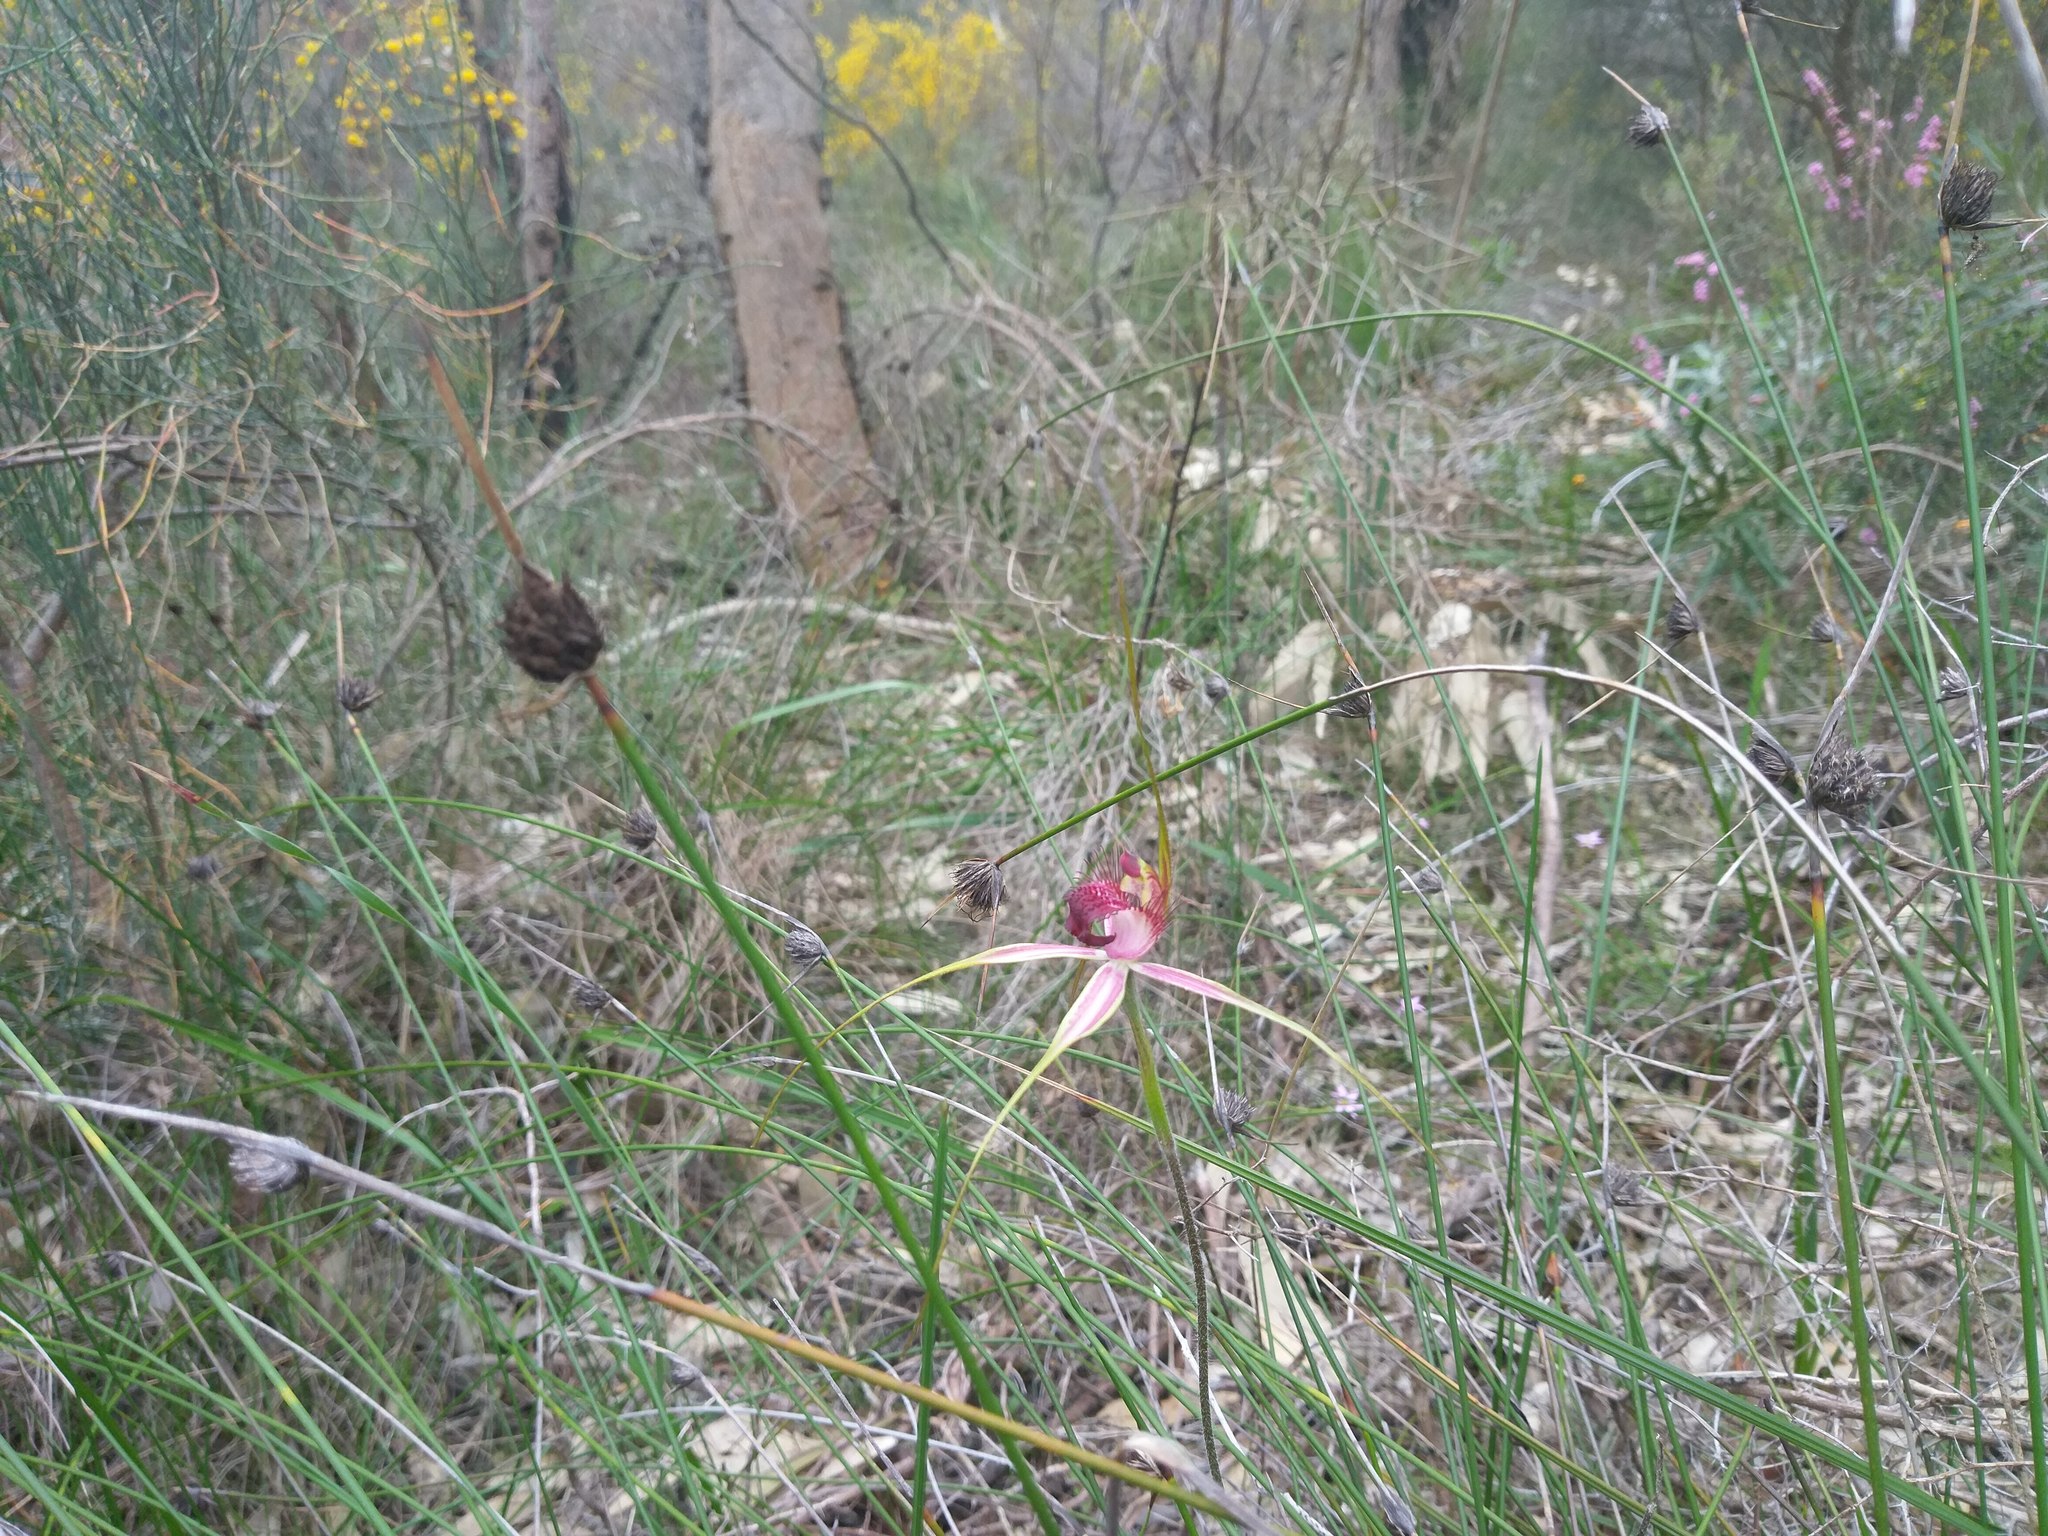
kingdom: Plantae
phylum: Tracheophyta
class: Liliopsida
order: Asparagales
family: Orchidaceae
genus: Caladenia
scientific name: Caladenia arenicola
